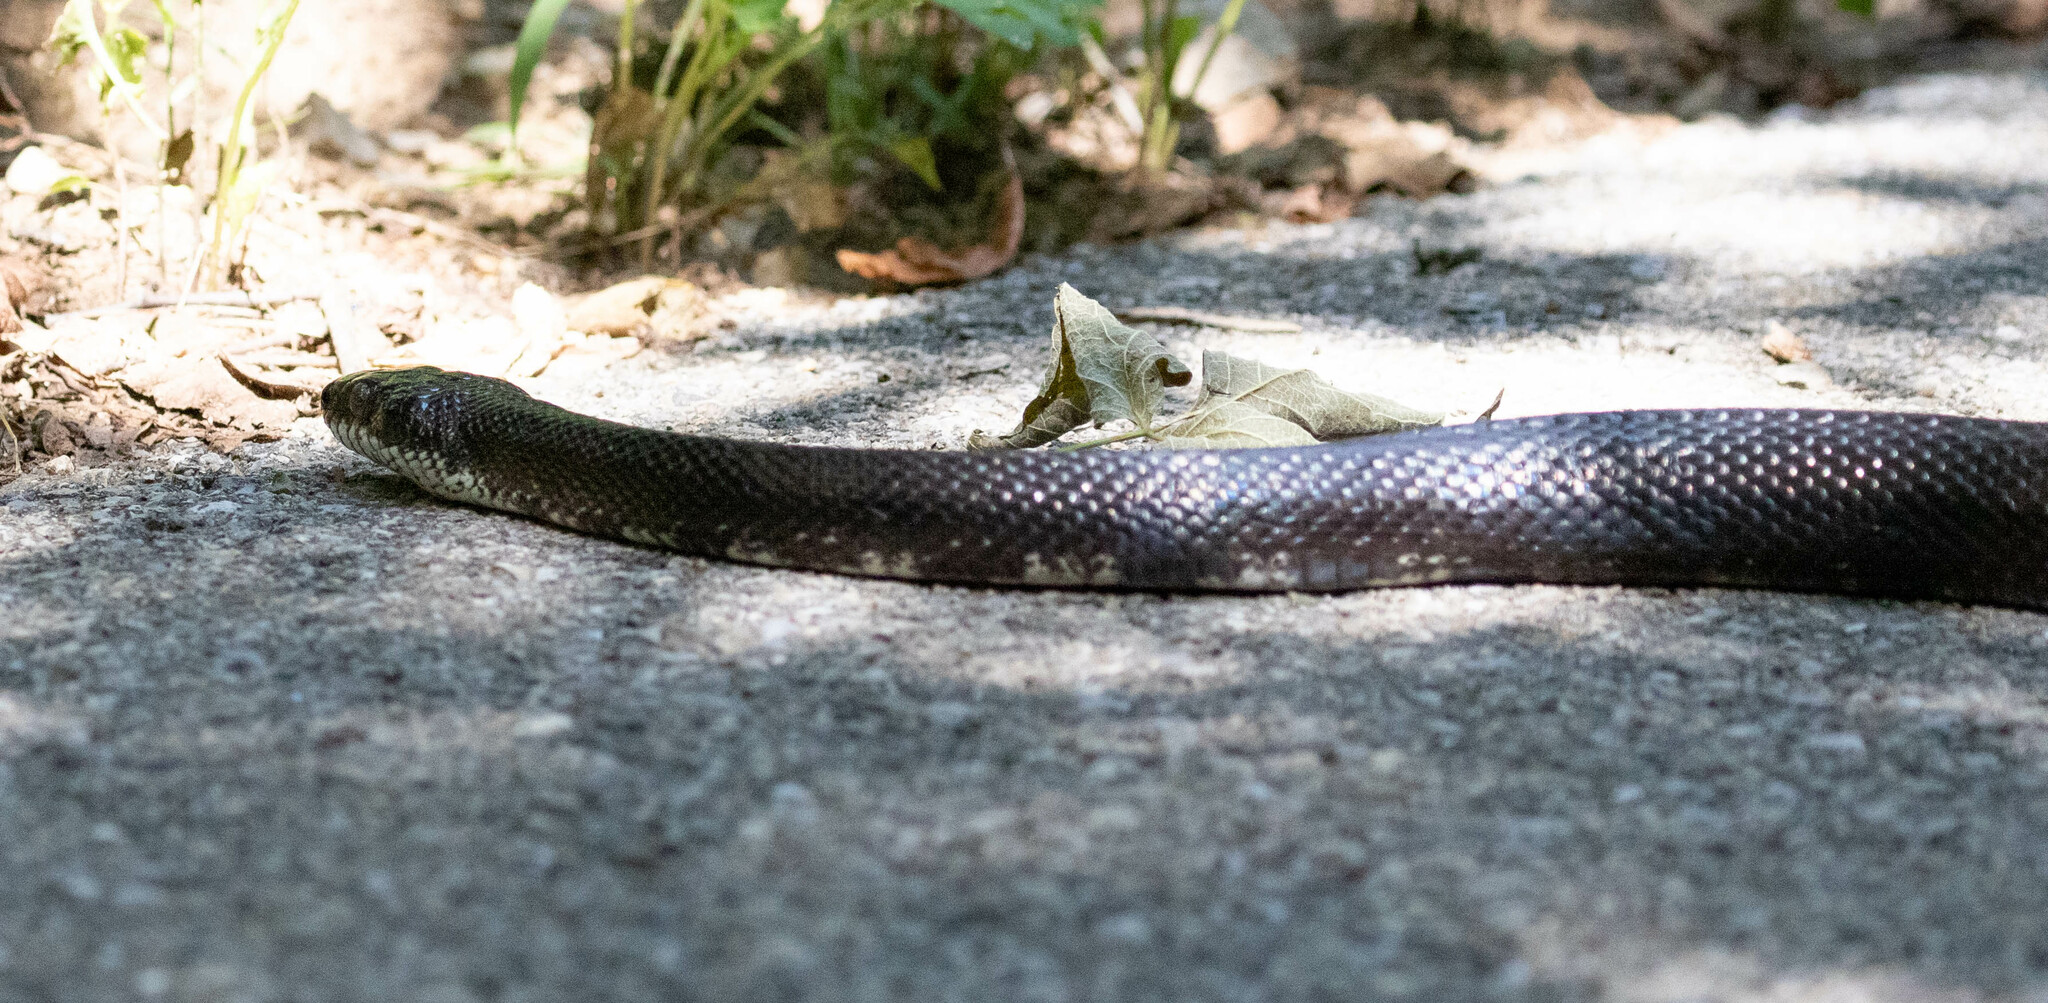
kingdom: Animalia
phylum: Chordata
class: Squamata
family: Colubridae
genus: Pantherophis
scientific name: Pantherophis
